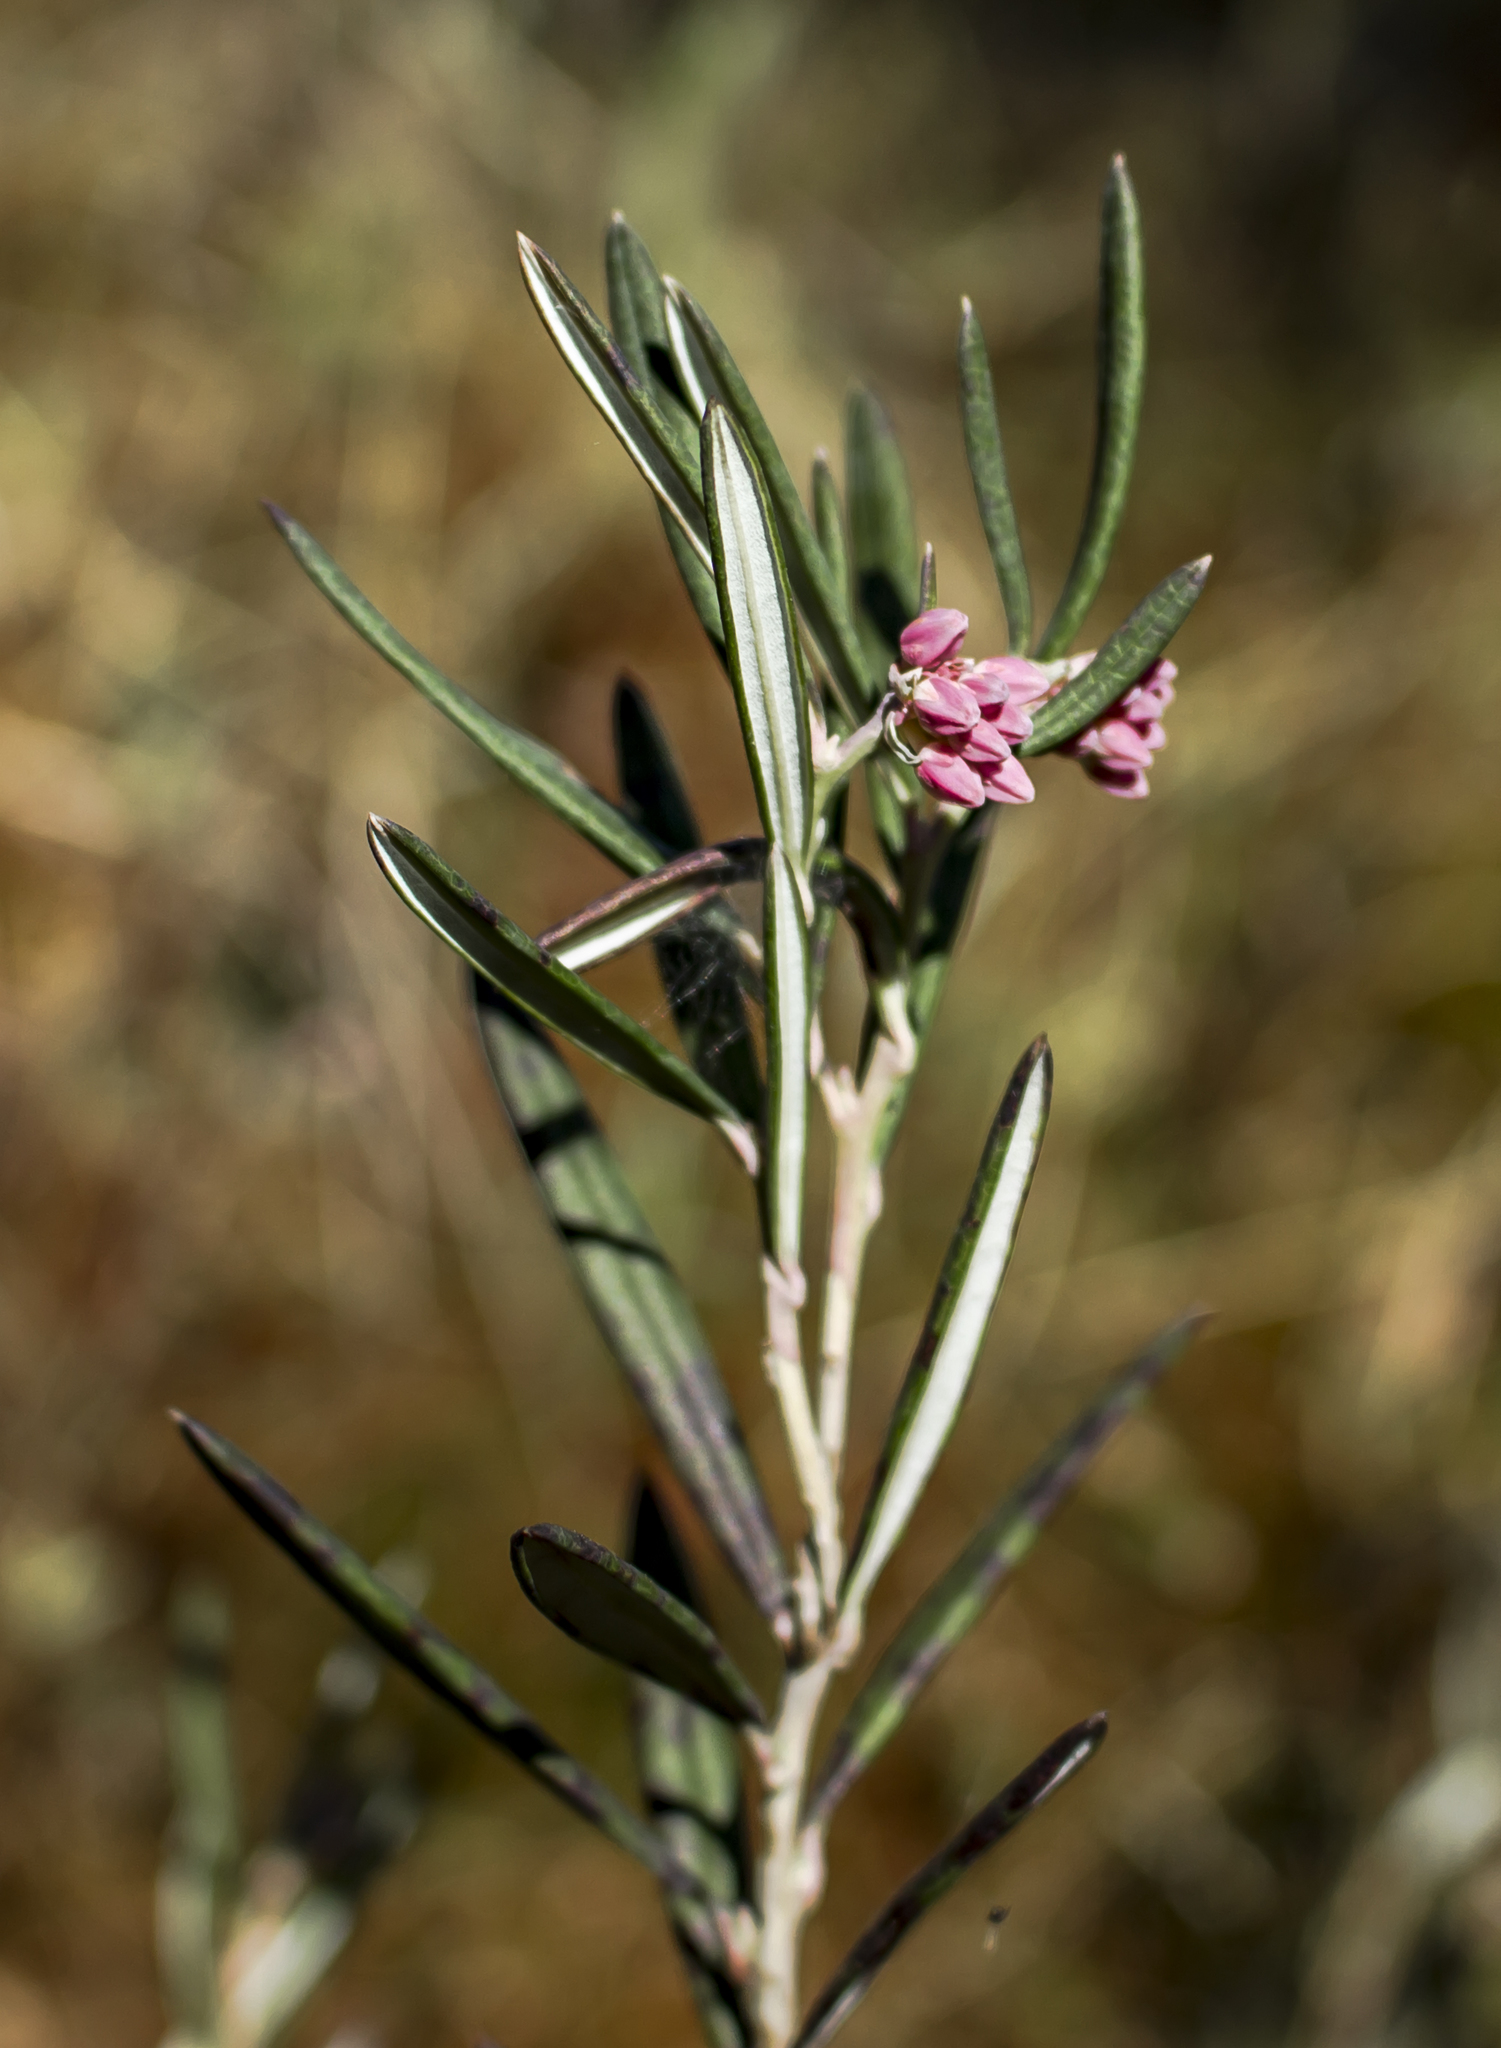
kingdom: Plantae
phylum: Tracheophyta
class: Magnoliopsida
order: Ericales
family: Ericaceae
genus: Andromeda
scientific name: Andromeda polifolia
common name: Bog-rosemary
